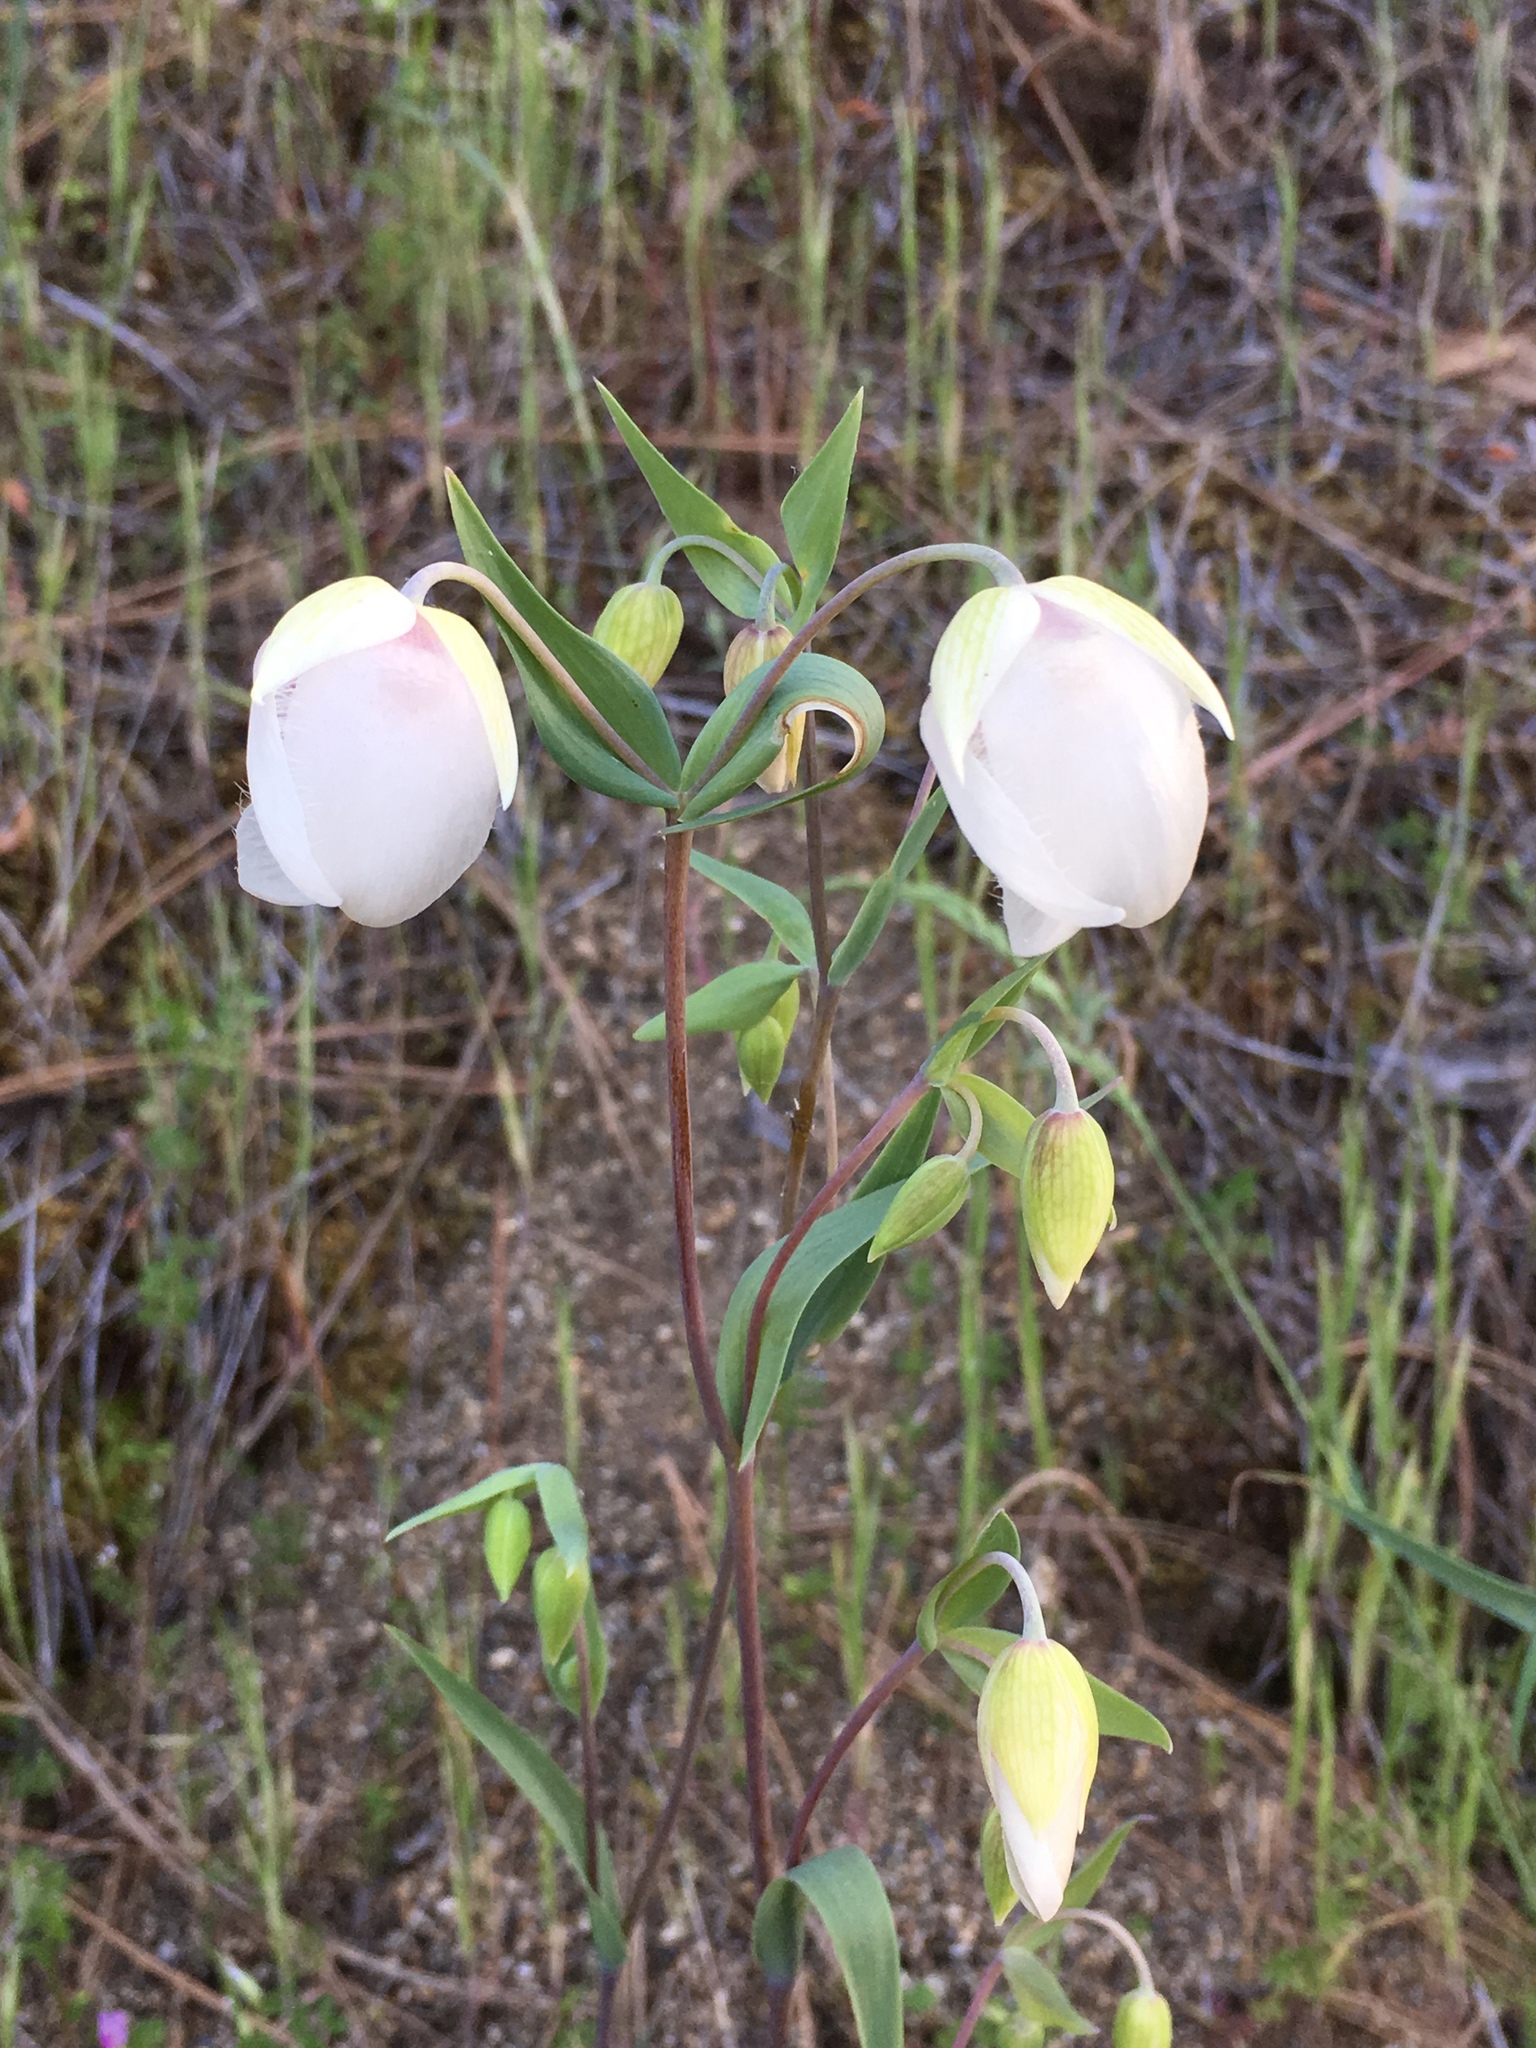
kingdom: Plantae
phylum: Tracheophyta
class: Liliopsida
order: Liliales
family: Liliaceae
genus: Calochortus
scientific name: Calochortus albus
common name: Fairy-lantern
